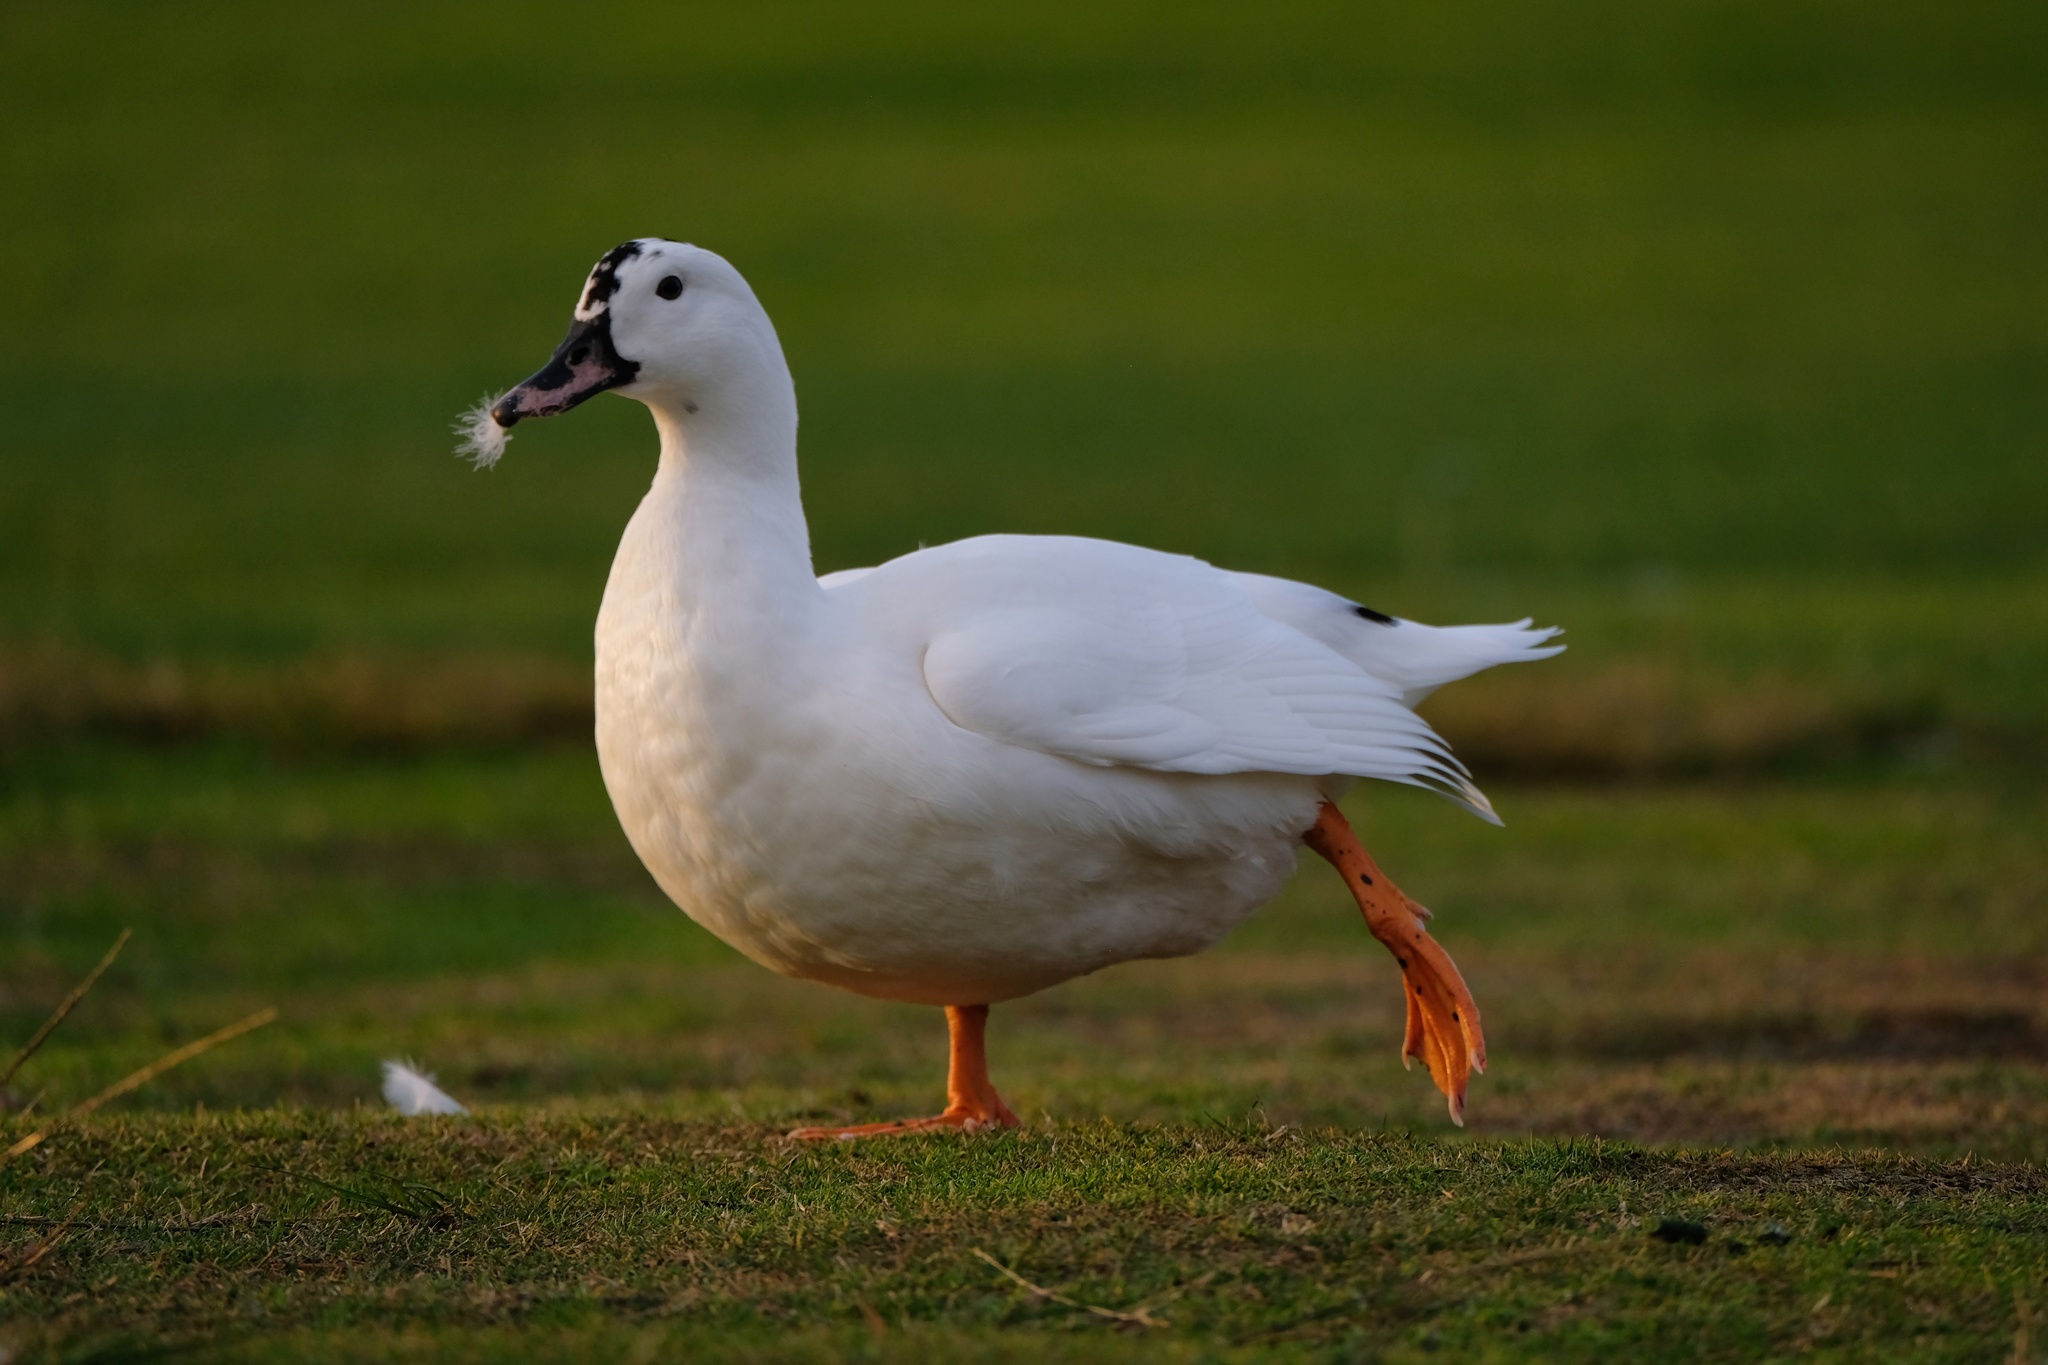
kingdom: Animalia
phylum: Chordata
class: Aves
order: Anseriformes
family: Anatidae
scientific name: Anatidae
